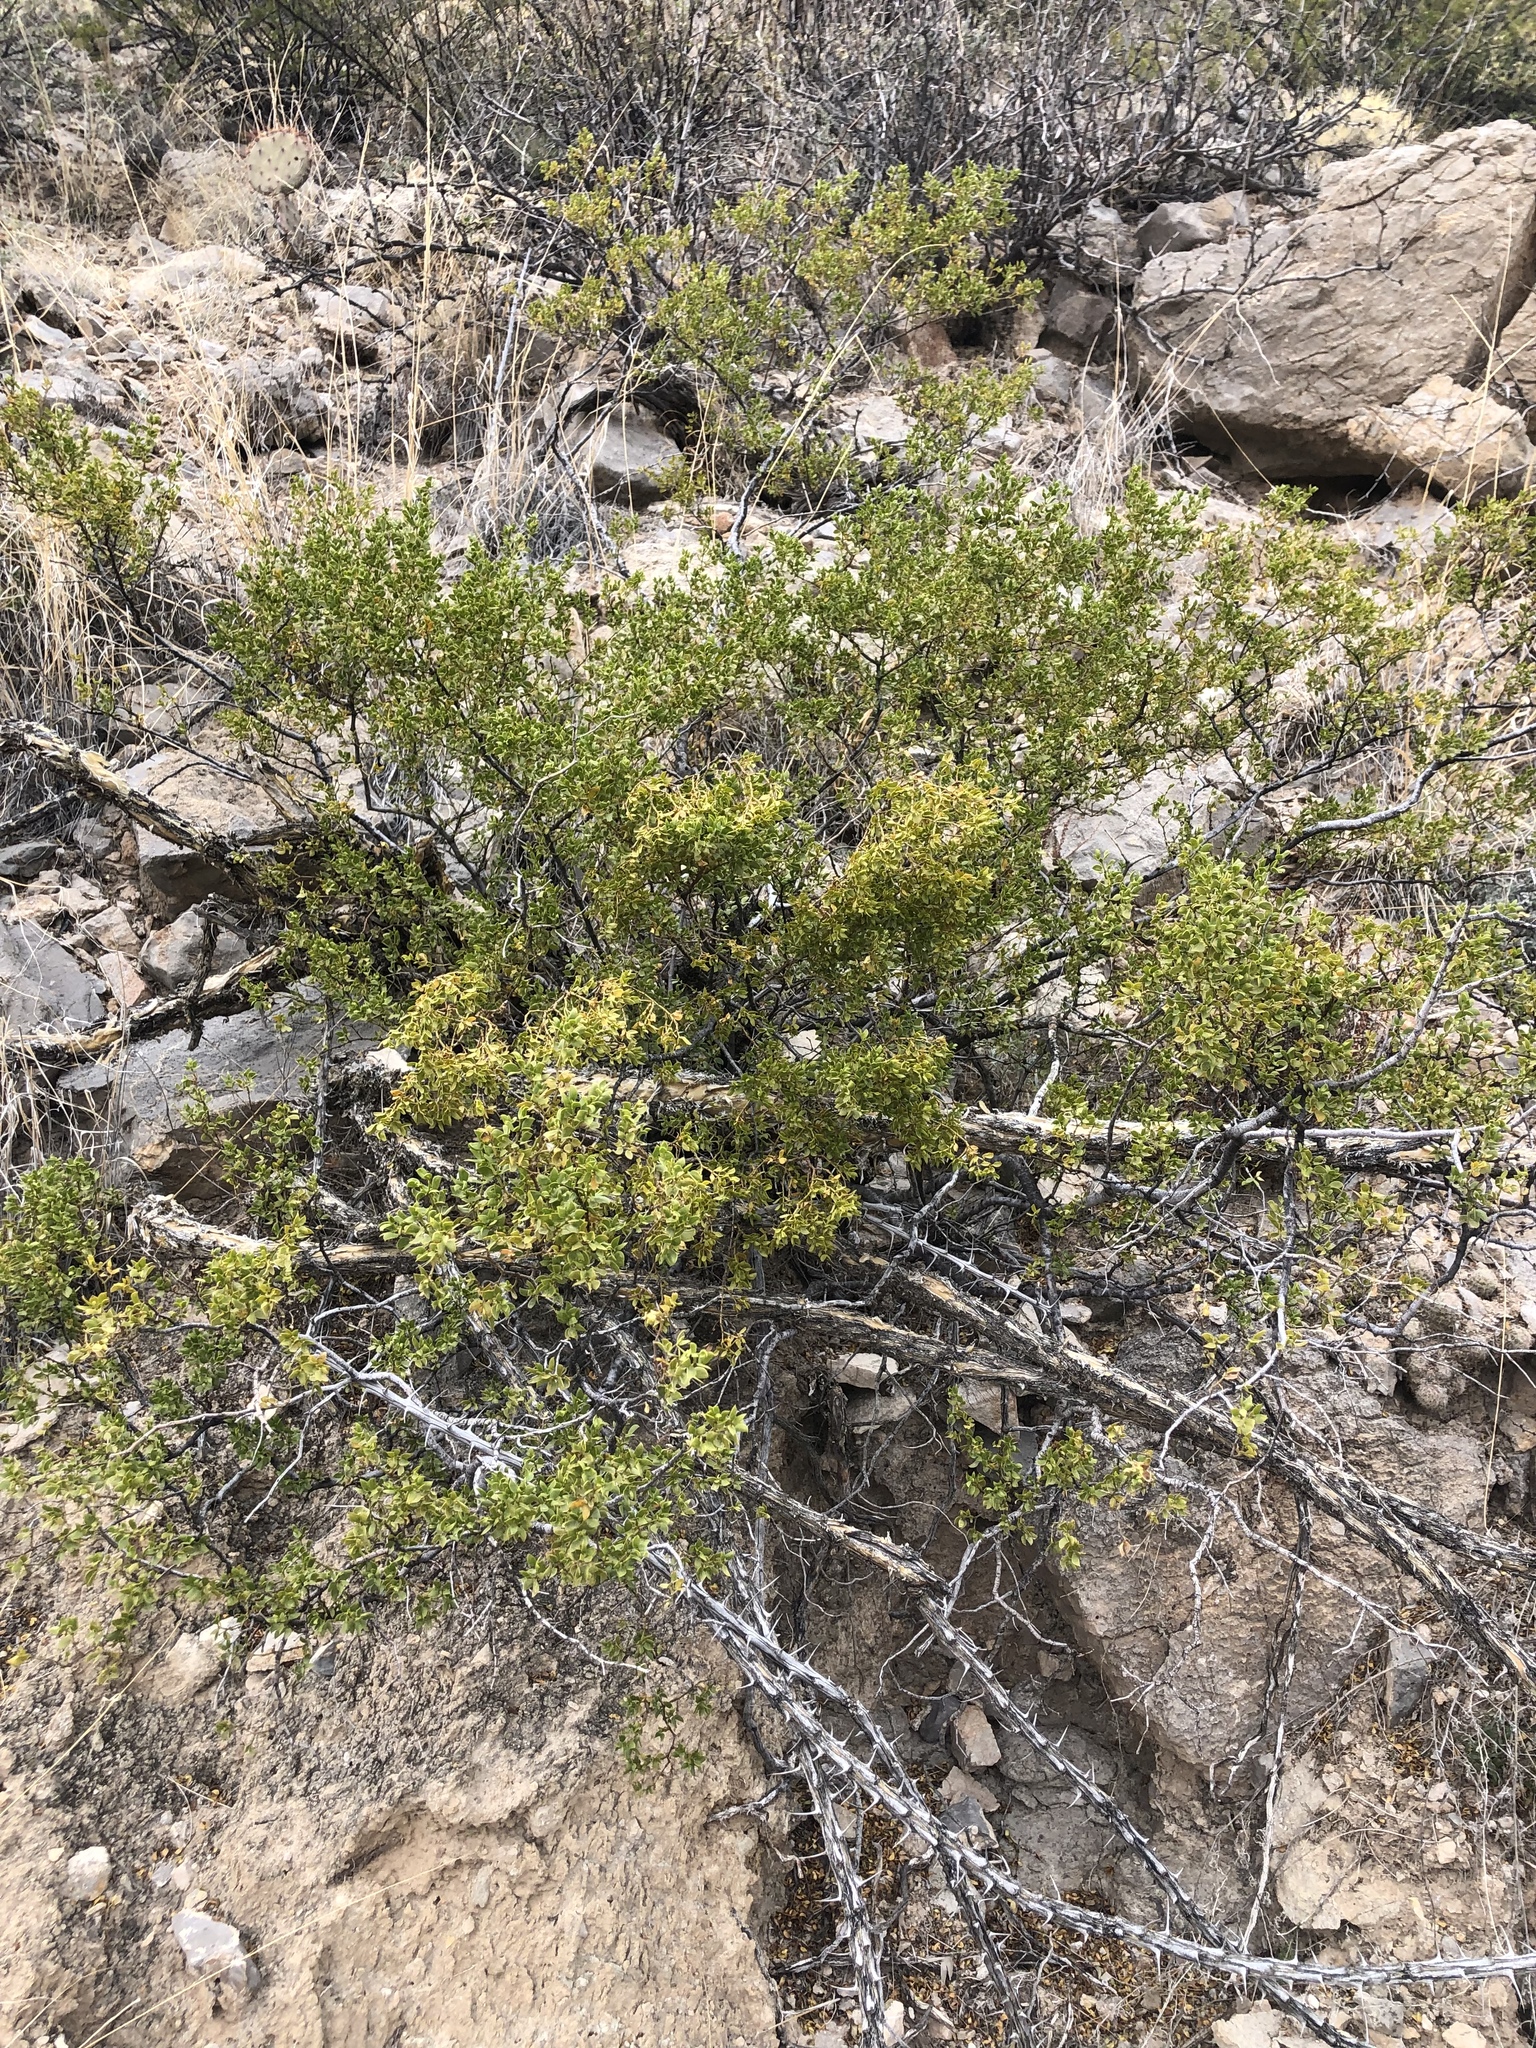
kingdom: Plantae
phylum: Tracheophyta
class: Magnoliopsida
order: Zygophyllales
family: Zygophyllaceae
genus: Larrea
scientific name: Larrea tridentata
